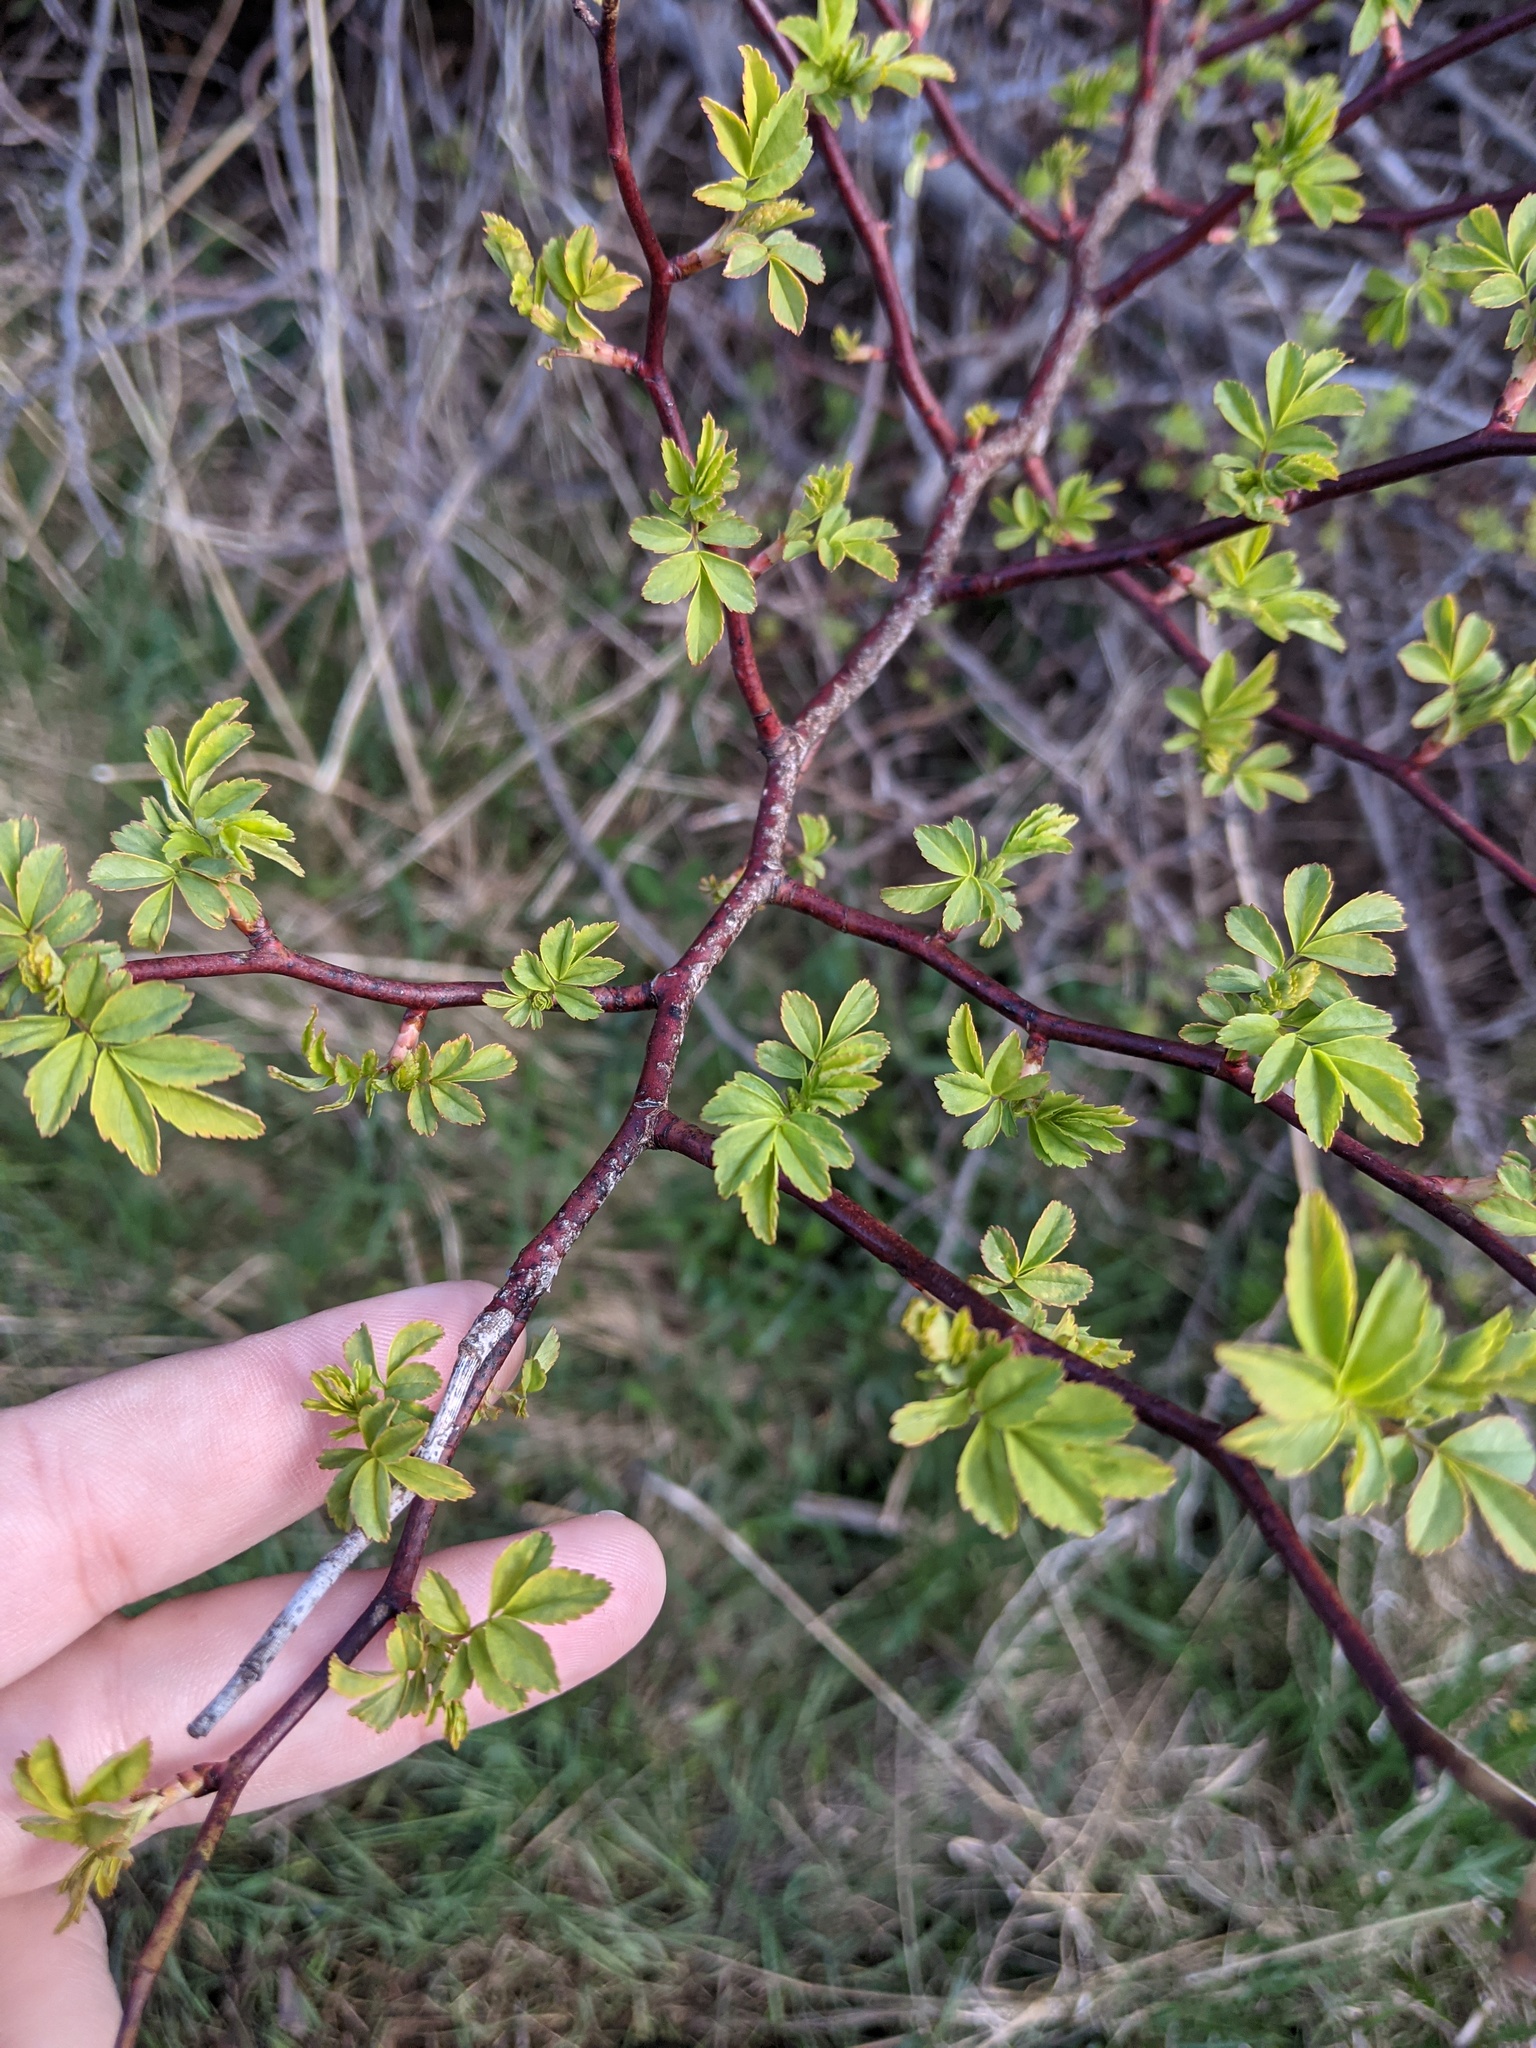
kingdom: Plantae
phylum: Tracheophyta
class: Magnoliopsida
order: Rosales
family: Rosaceae
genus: Rosa
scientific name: Rosa multiflora
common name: Multiflora rose
